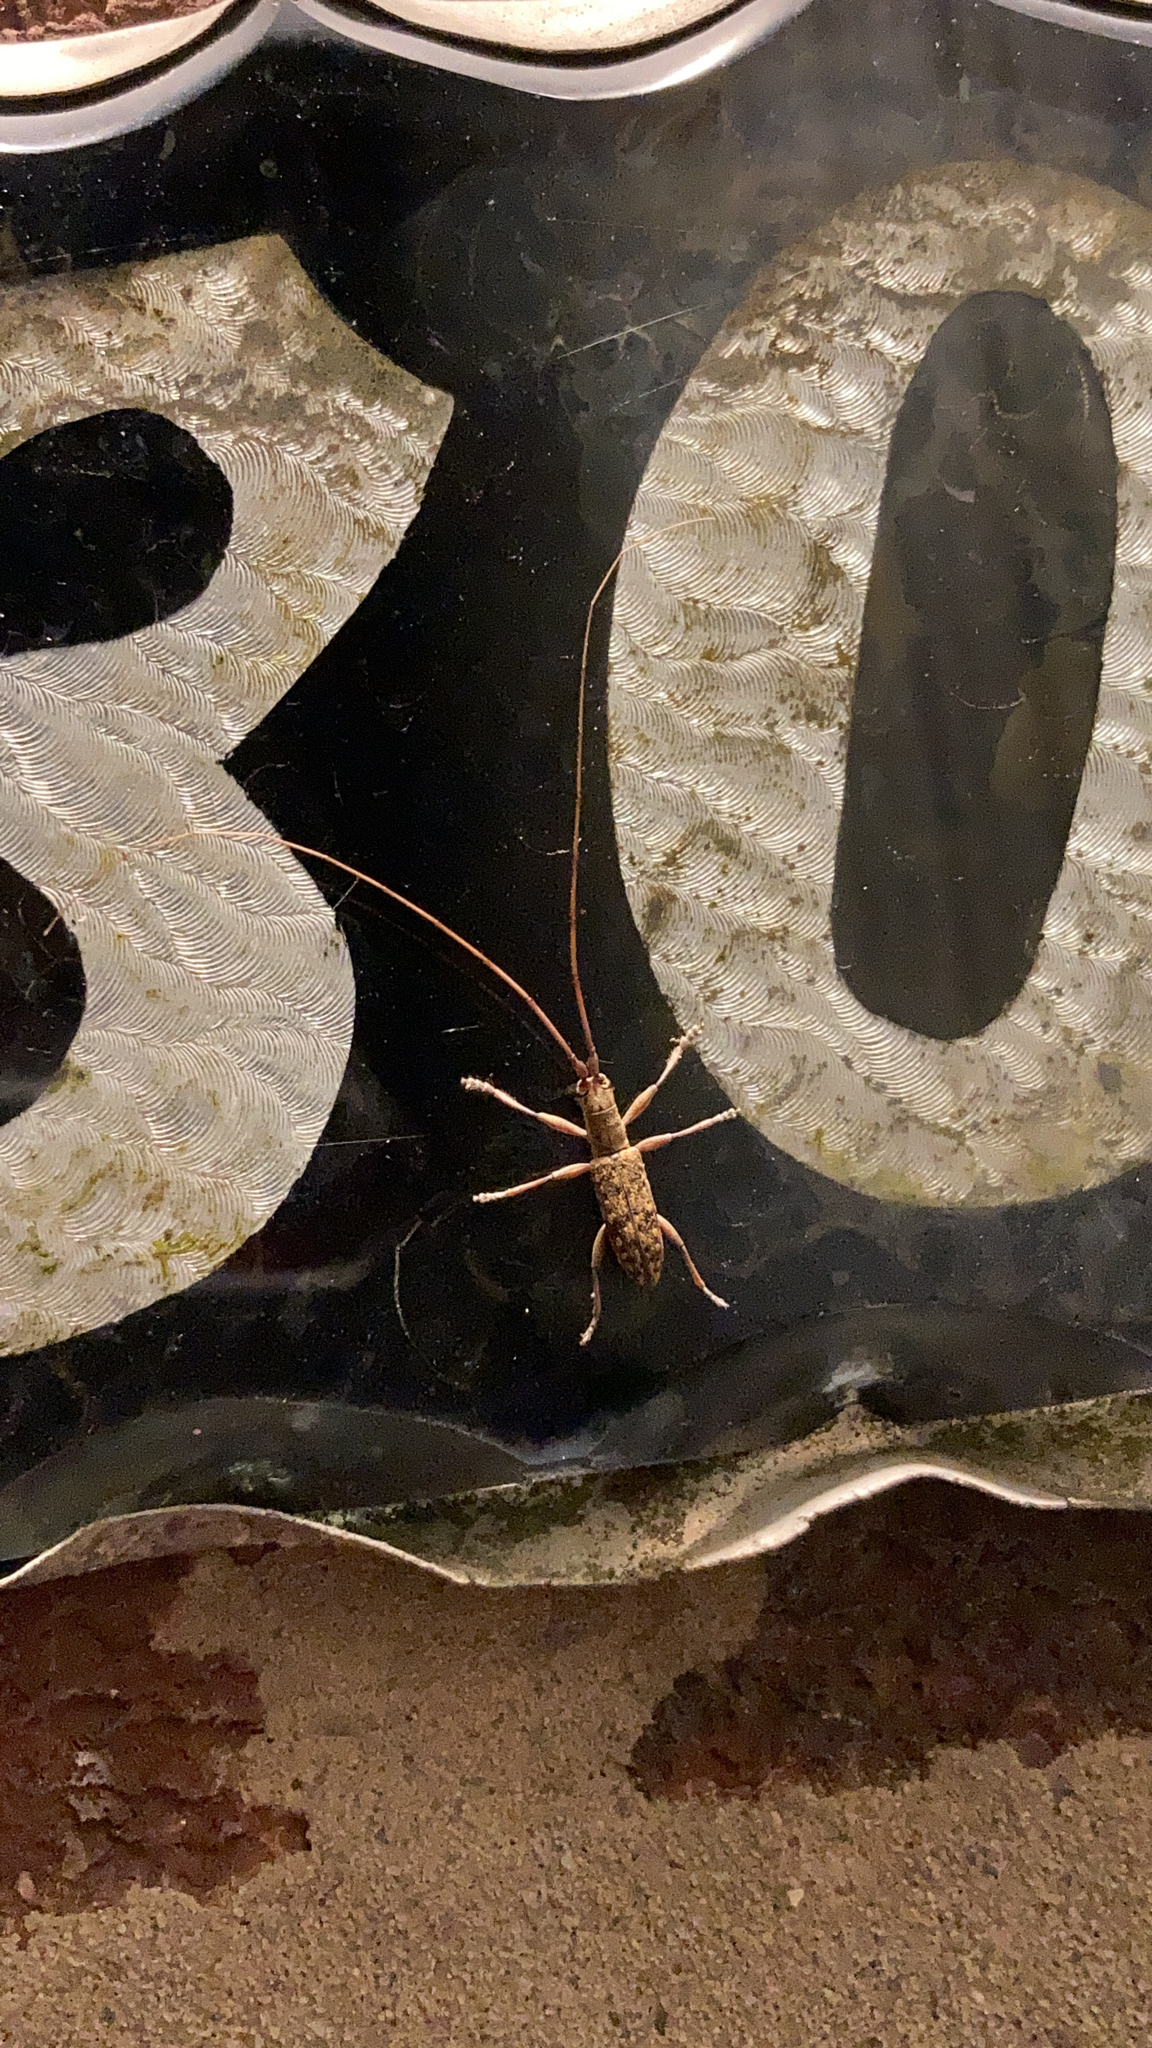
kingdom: Animalia
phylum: Arthropoda
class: Insecta
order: Coleoptera
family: Cerambycidae
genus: Dorcaschema
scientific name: Dorcaschema alternatum
